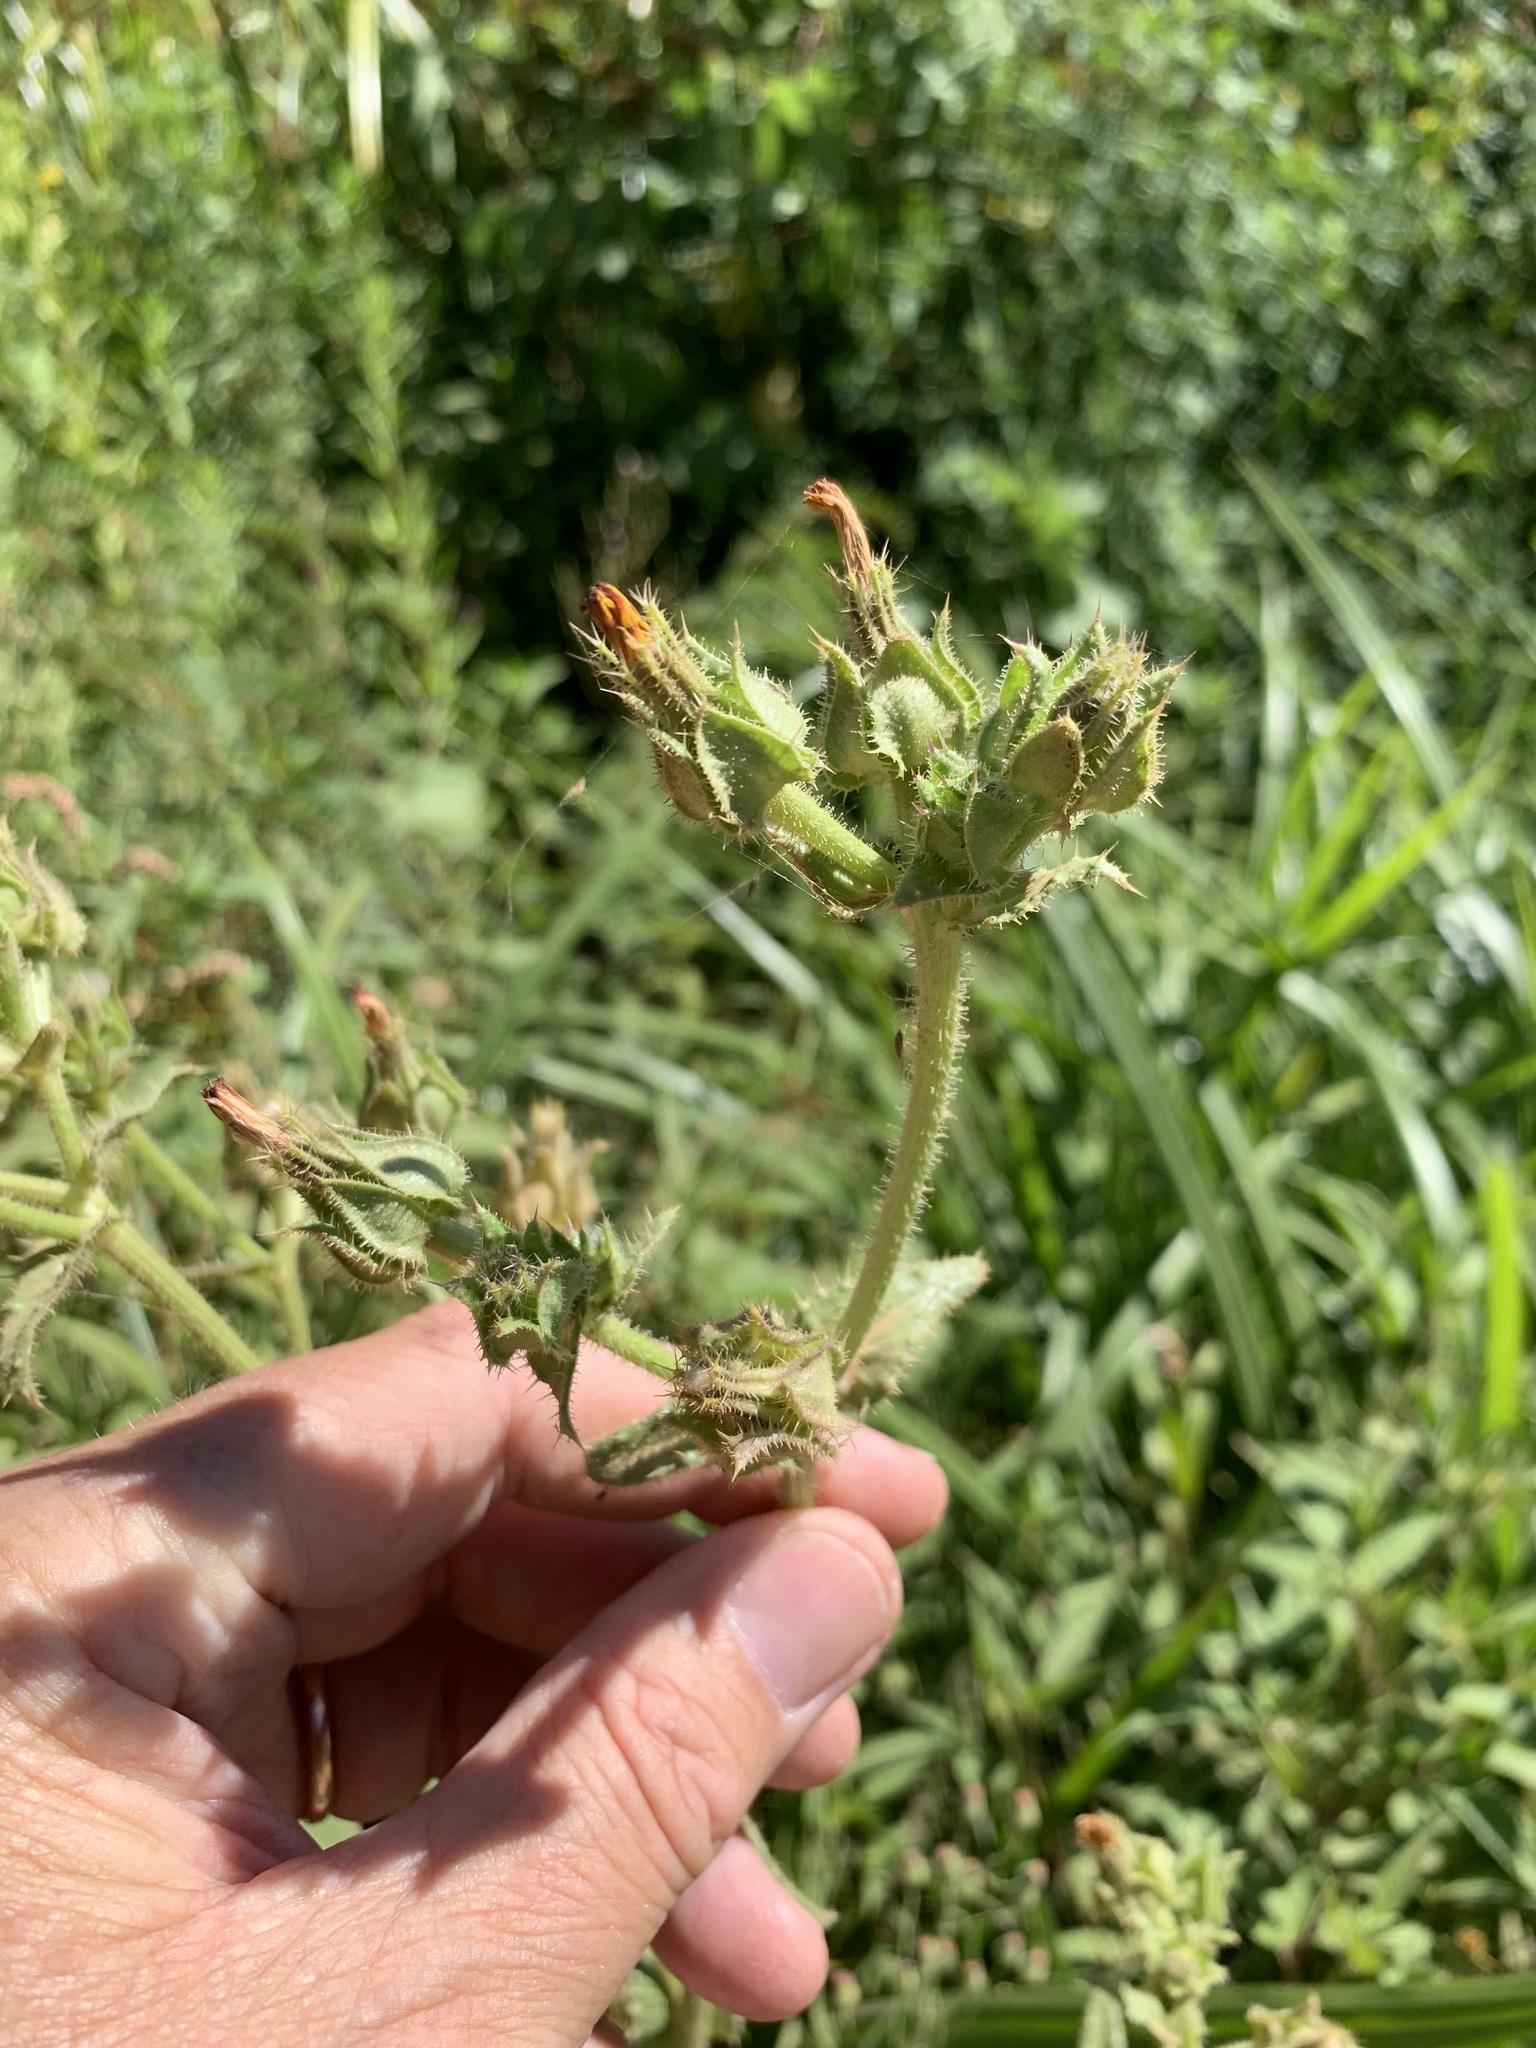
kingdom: Plantae
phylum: Tracheophyta
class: Magnoliopsida
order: Asterales
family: Asteraceae
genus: Helminthotheca
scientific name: Helminthotheca echioides
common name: Ox-tongue
